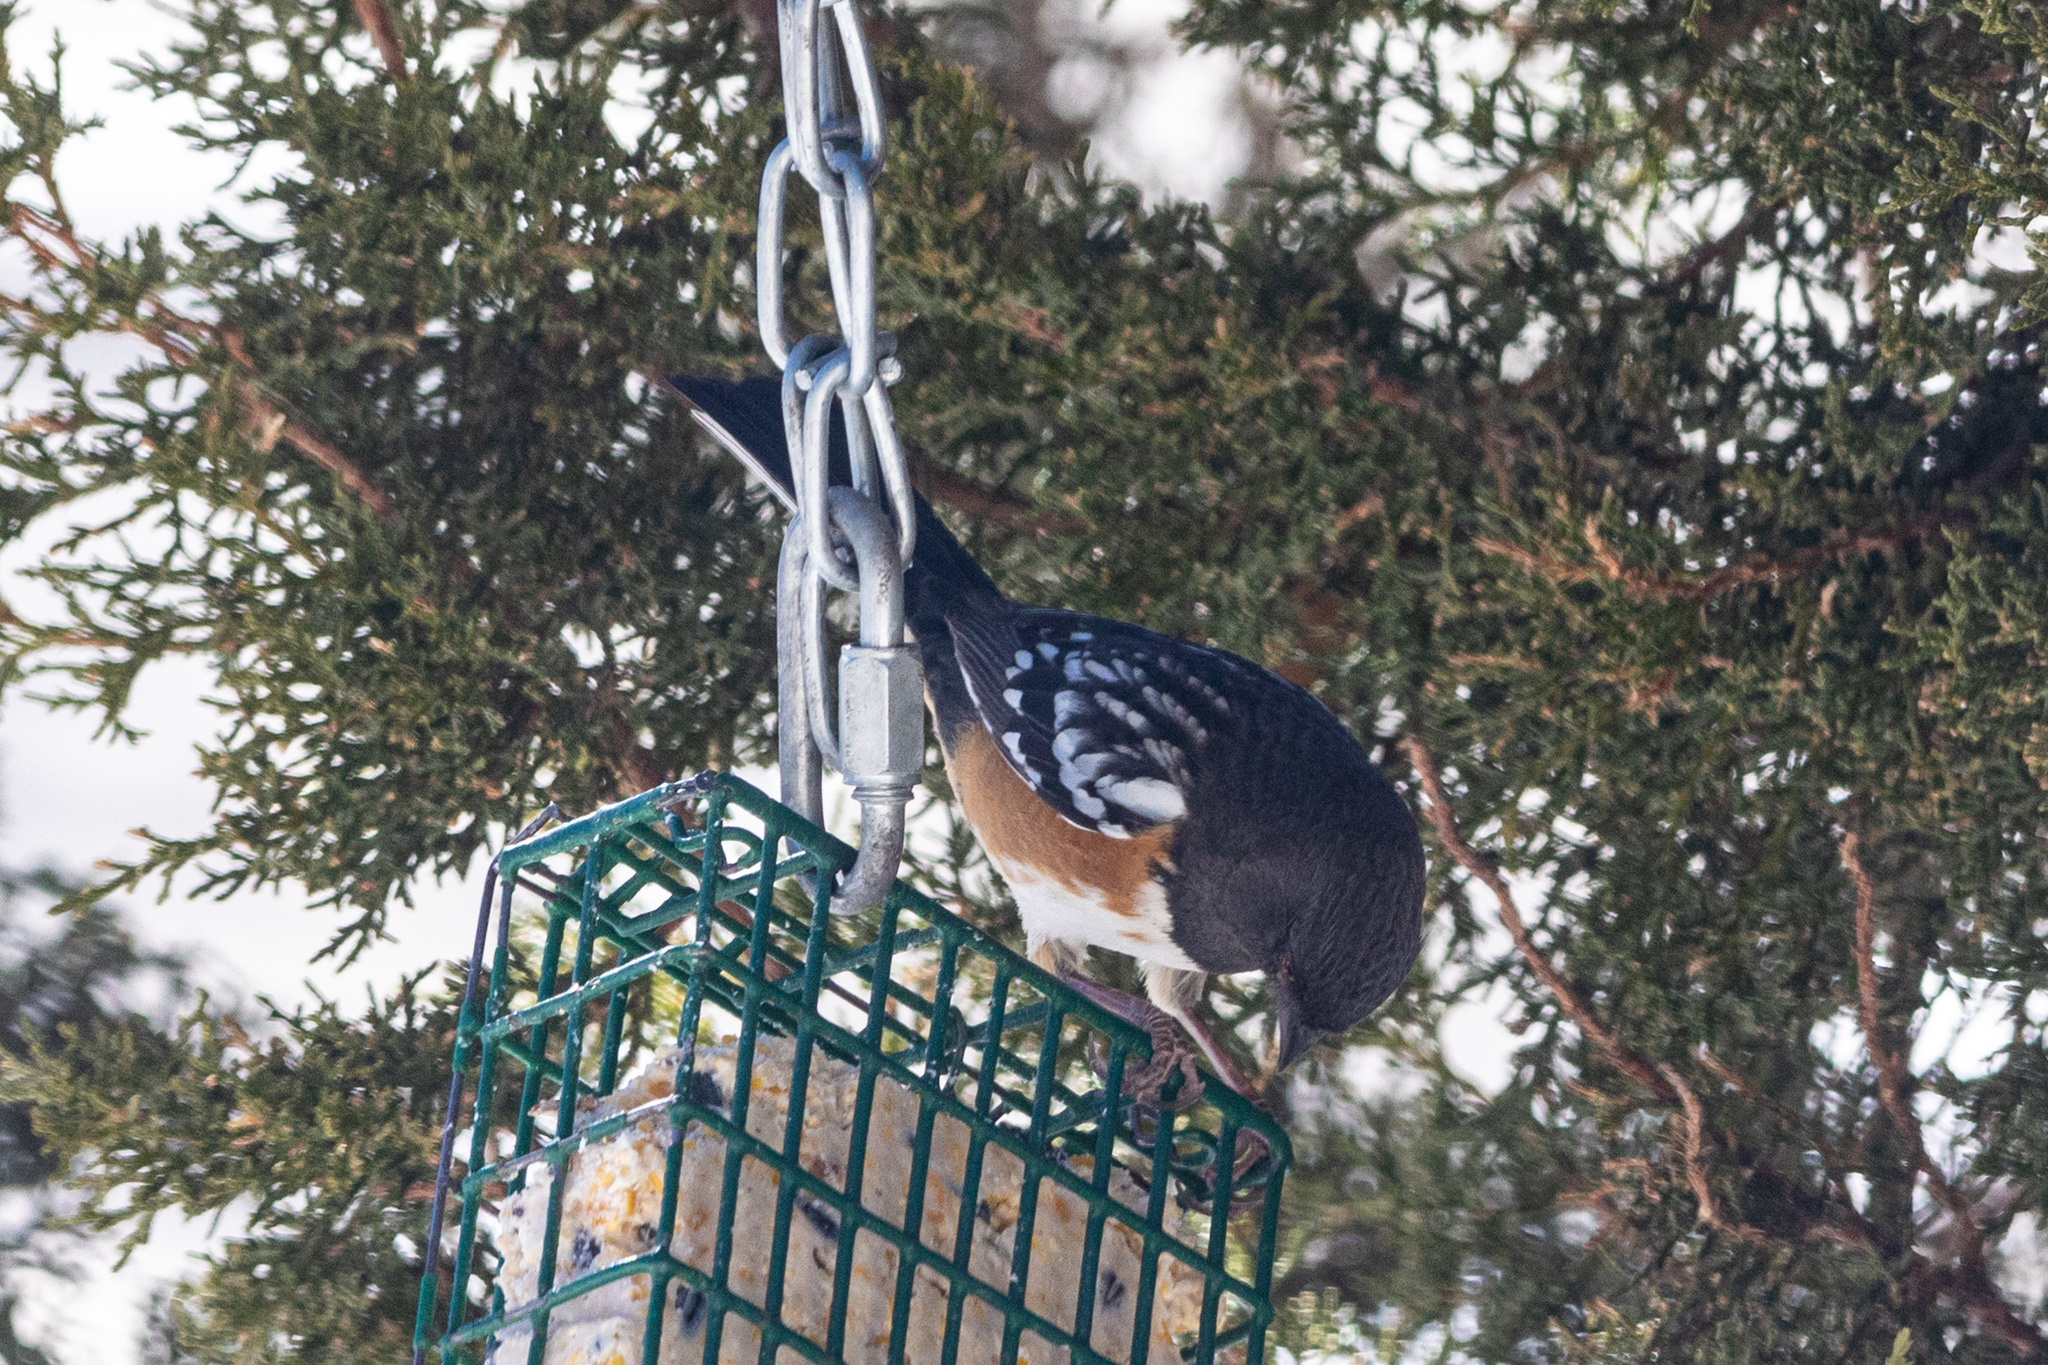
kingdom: Animalia
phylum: Chordata
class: Aves
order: Passeriformes
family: Passerellidae
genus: Pipilo
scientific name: Pipilo maculatus
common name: Spotted towhee
